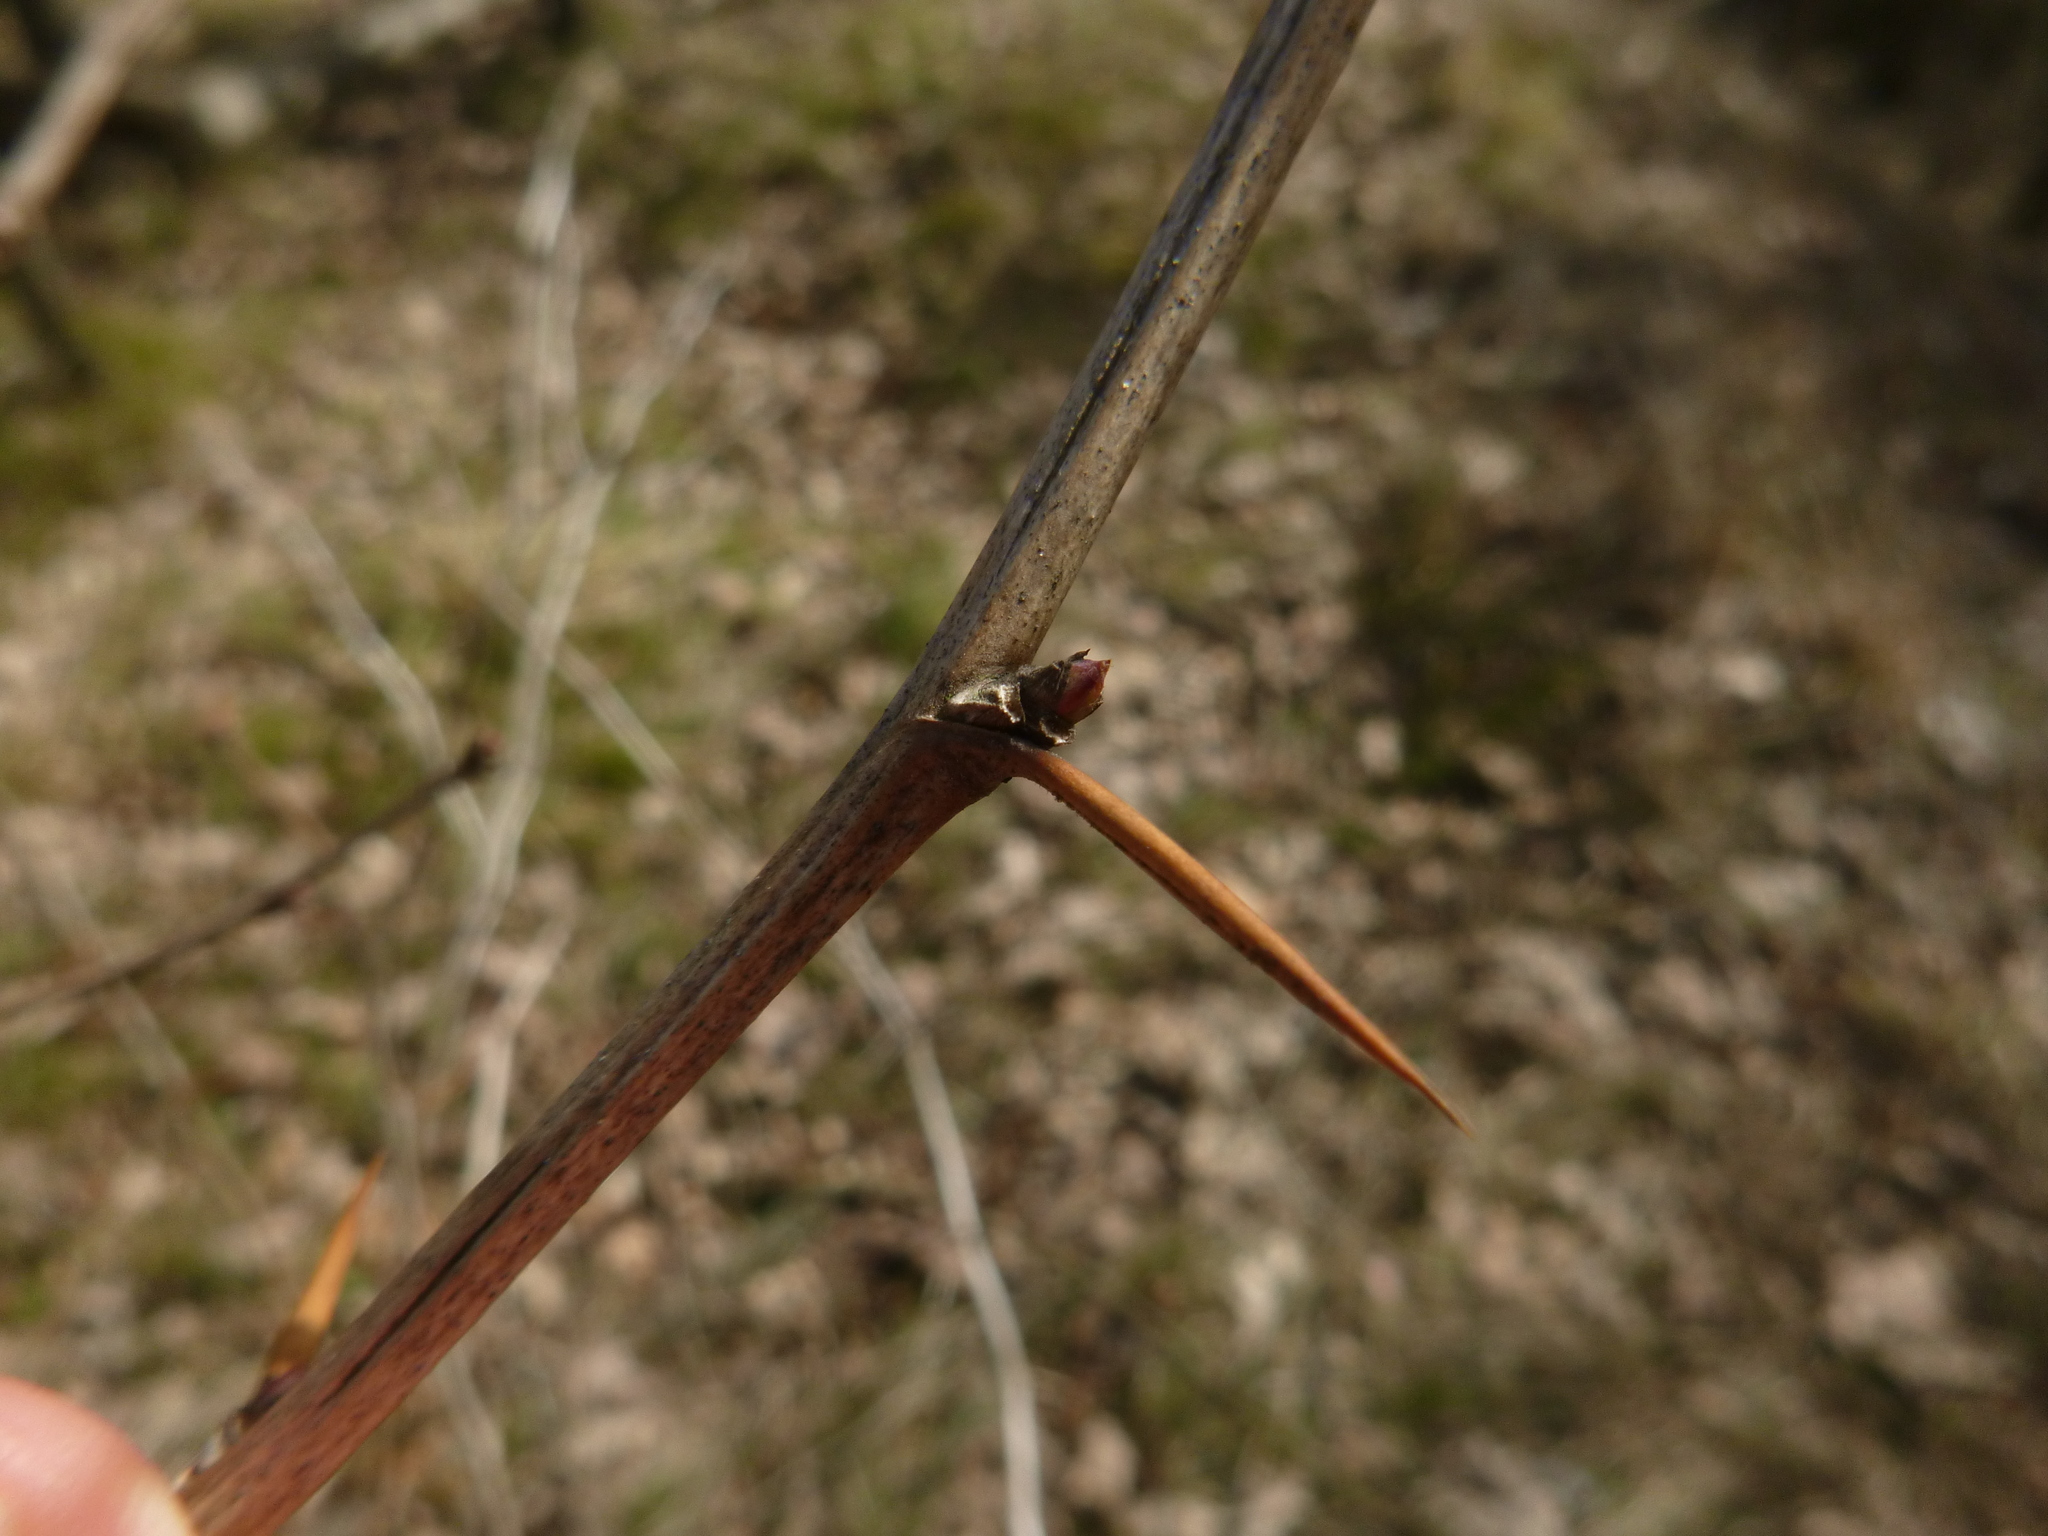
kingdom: Plantae
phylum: Tracheophyta
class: Magnoliopsida
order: Ranunculales
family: Berberidaceae
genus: Berberis
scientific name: Berberis vulgaris
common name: Barberry
